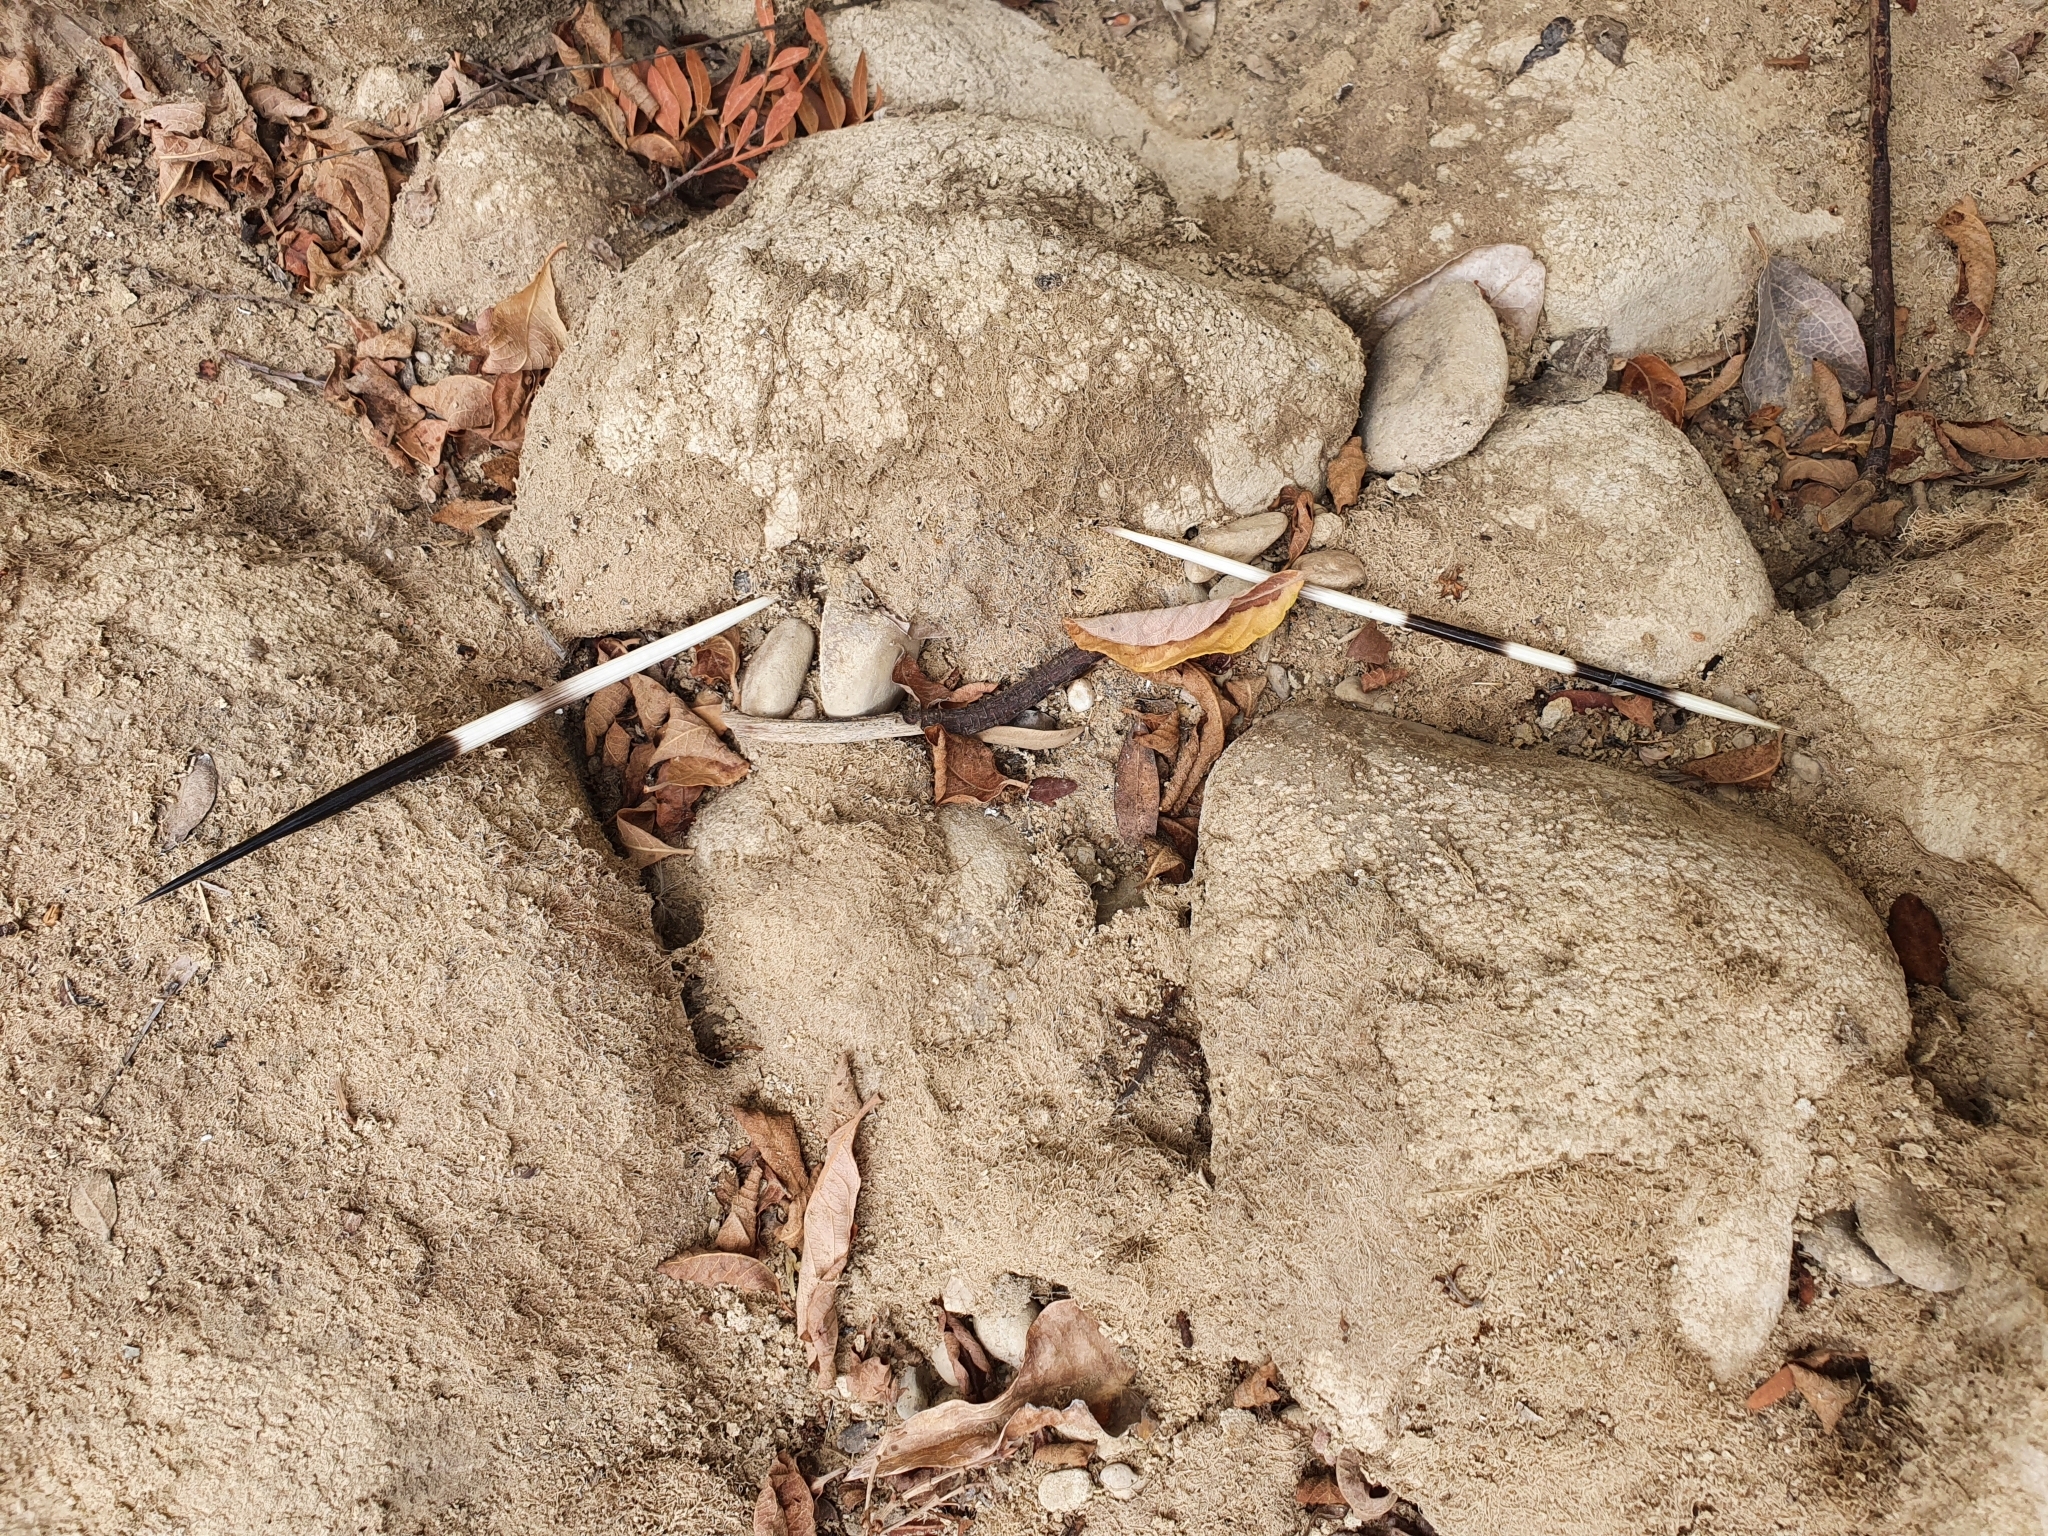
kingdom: Animalia
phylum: Chordata
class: Mammalia
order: Rodentia
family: Hystricidae
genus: Hystrix
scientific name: Hystrix cristata
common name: Crested porcupine
